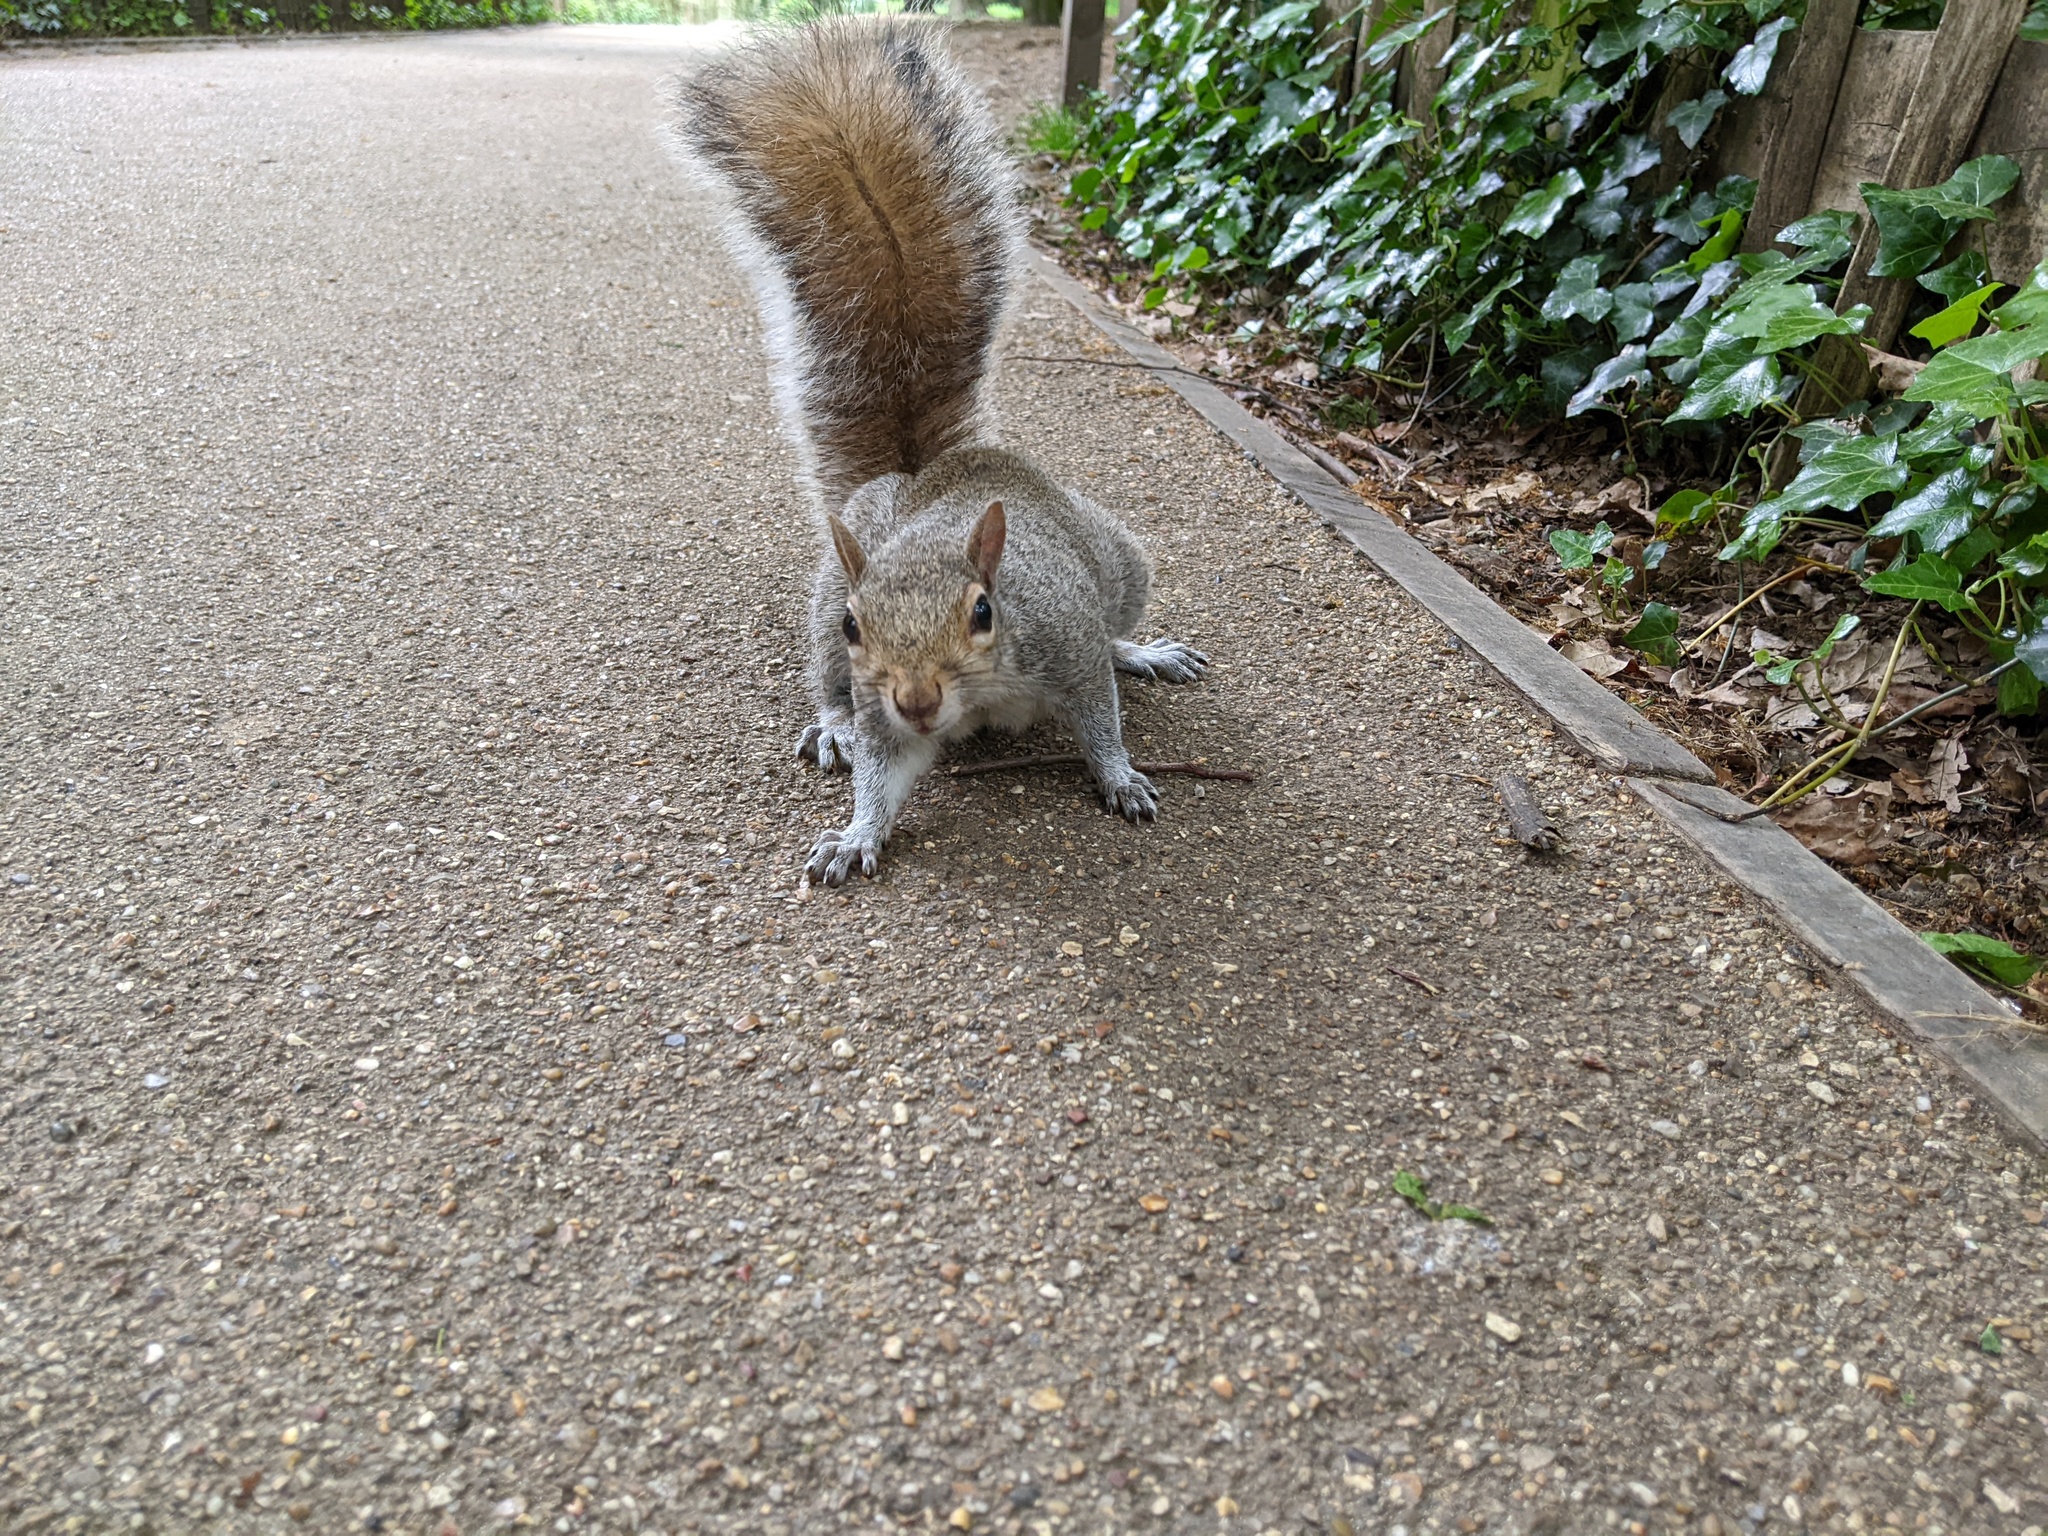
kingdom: Animalia
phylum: Chordata
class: Mammalia
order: Rodentia
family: Sciuridae
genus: Sciurus
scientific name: Sciurus carolinensis
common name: Eastern gray squirrel
